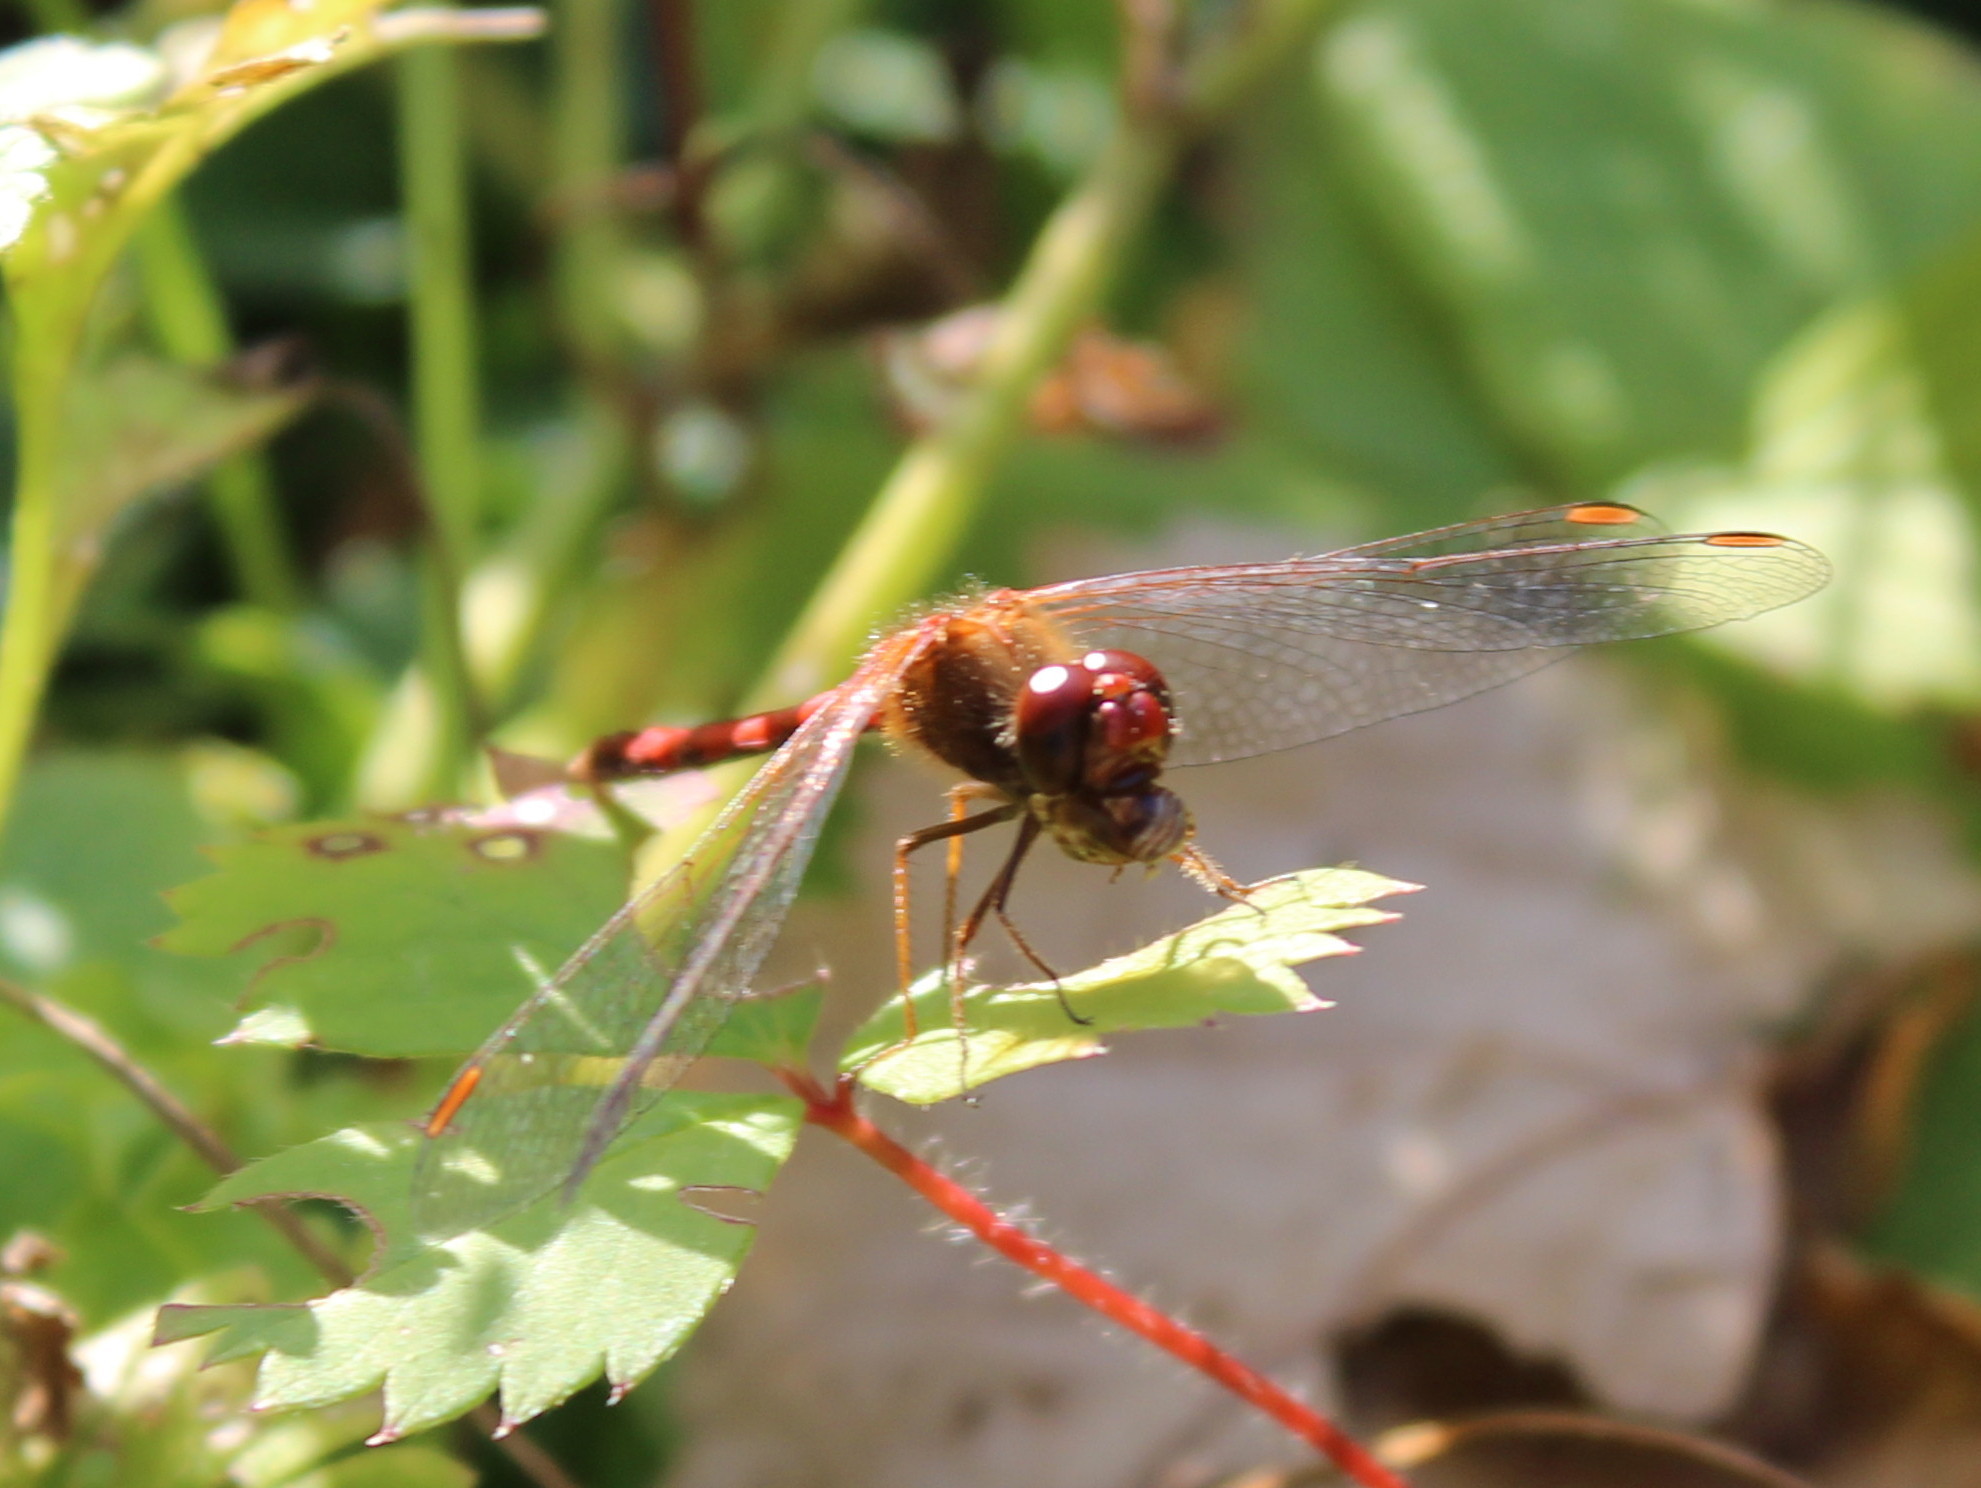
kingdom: Animalia
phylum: Arthropoda
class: Insecta
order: Odonata
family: Libellulidae
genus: Sympetrum
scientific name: Sympetrum vicinum
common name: Autumn meadowhawk
